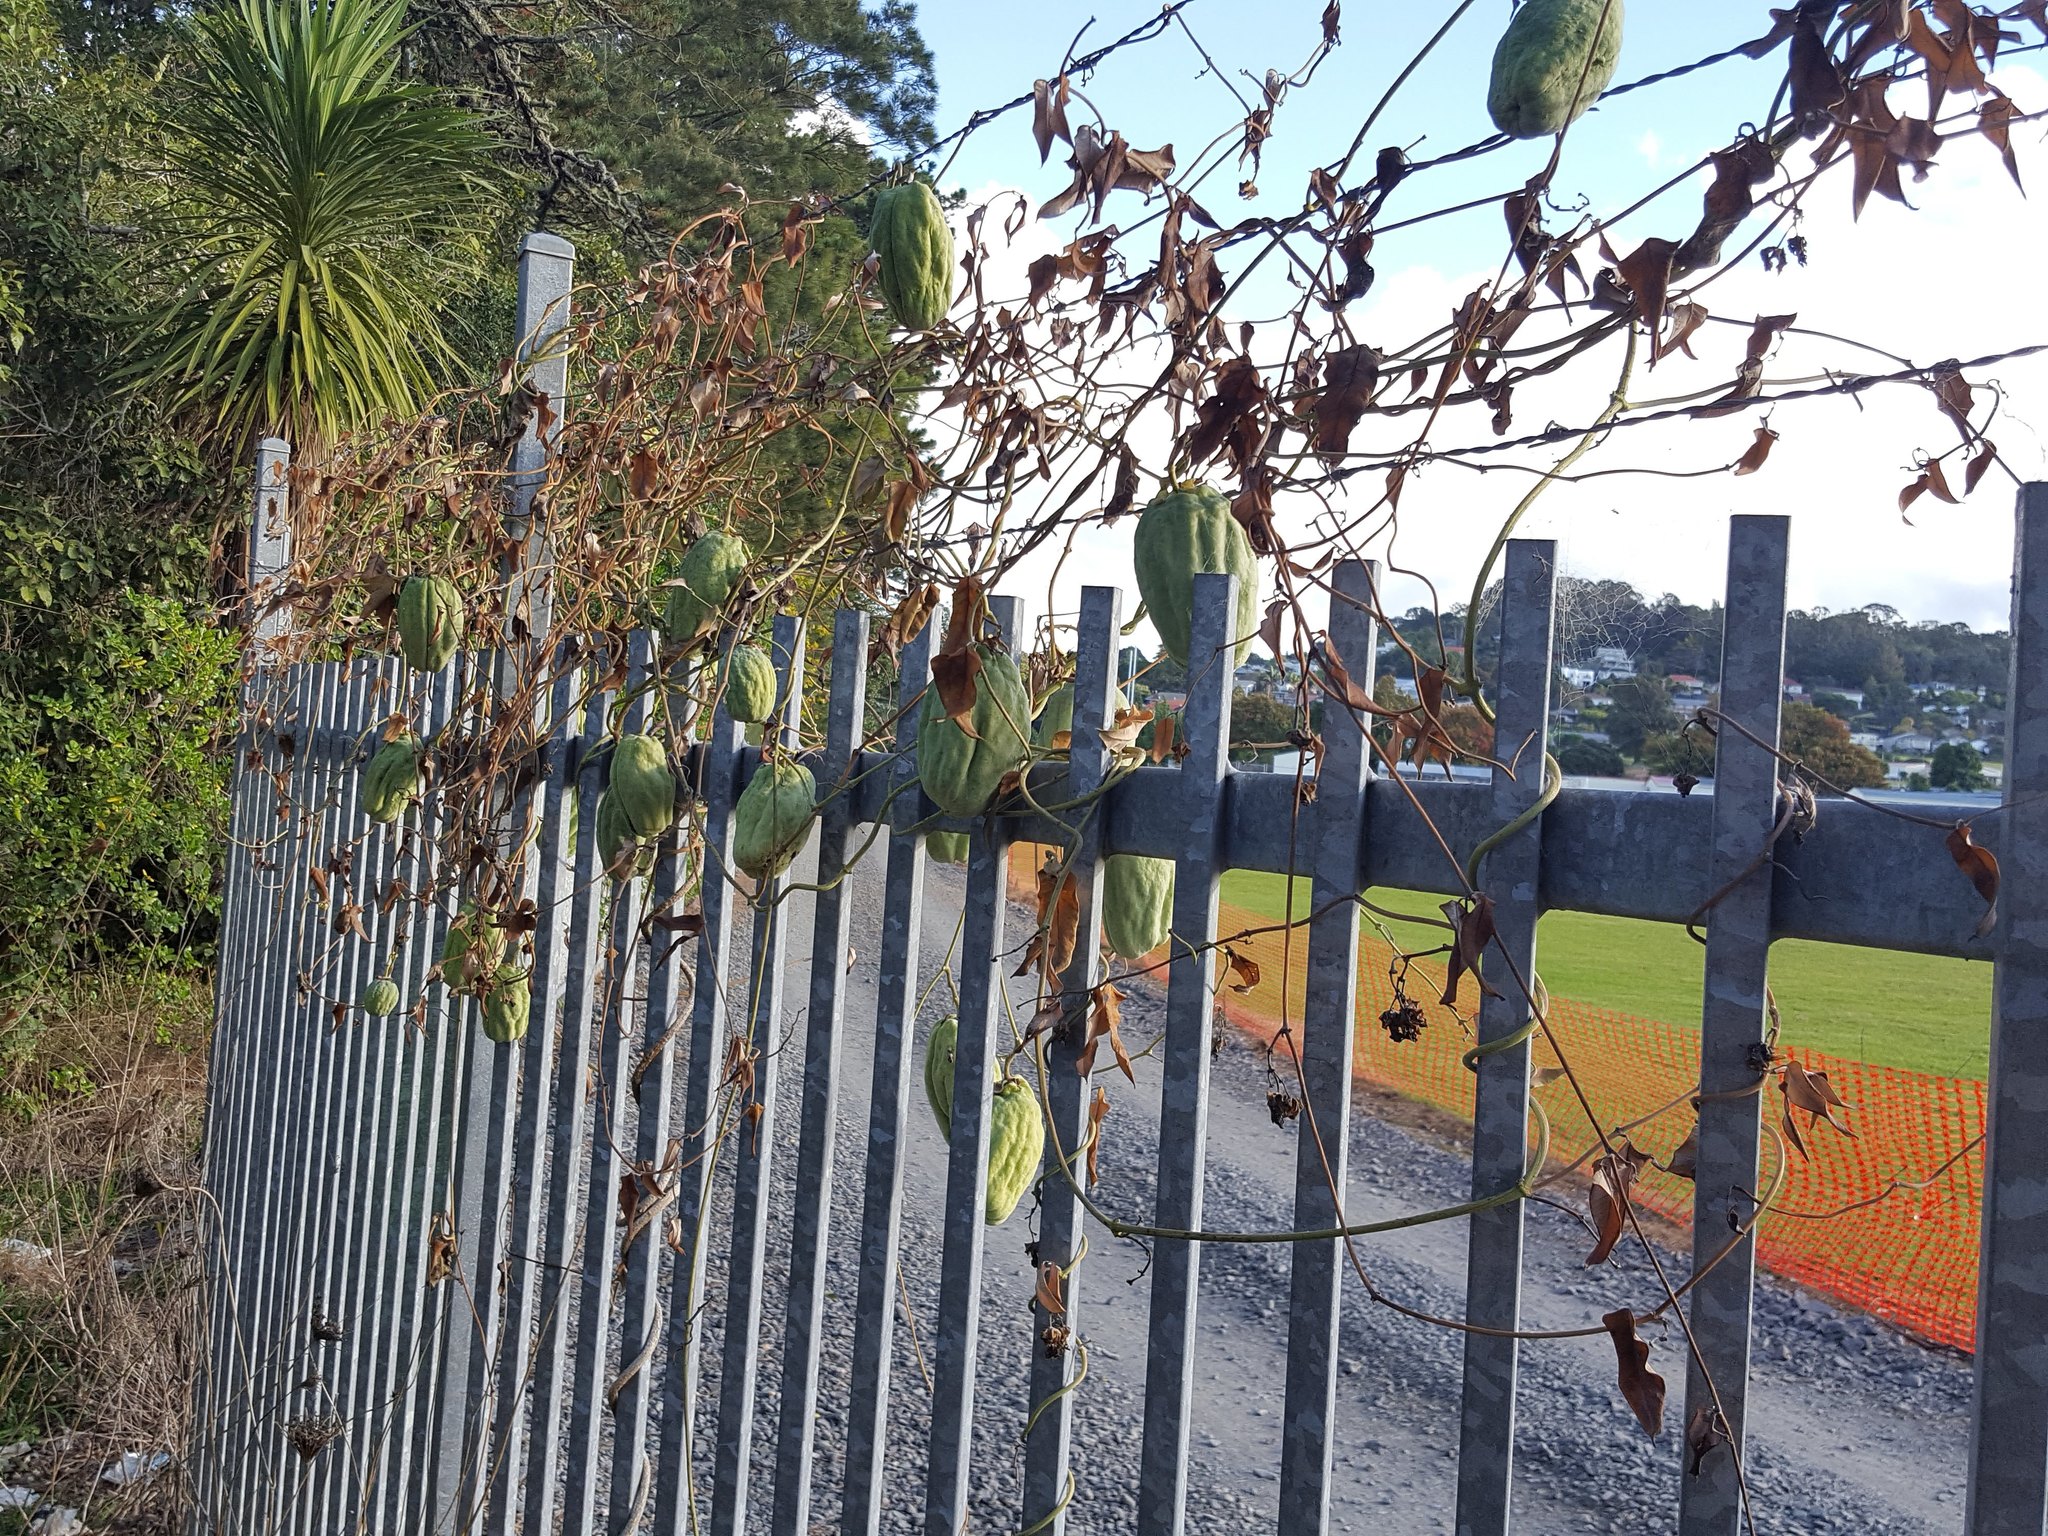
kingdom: Plantae
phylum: Tracheophyta
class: Magnoliopsida
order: Gentianales
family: Apocynaceae
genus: Araujia
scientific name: Araujia sericifera
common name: White bladderflower
